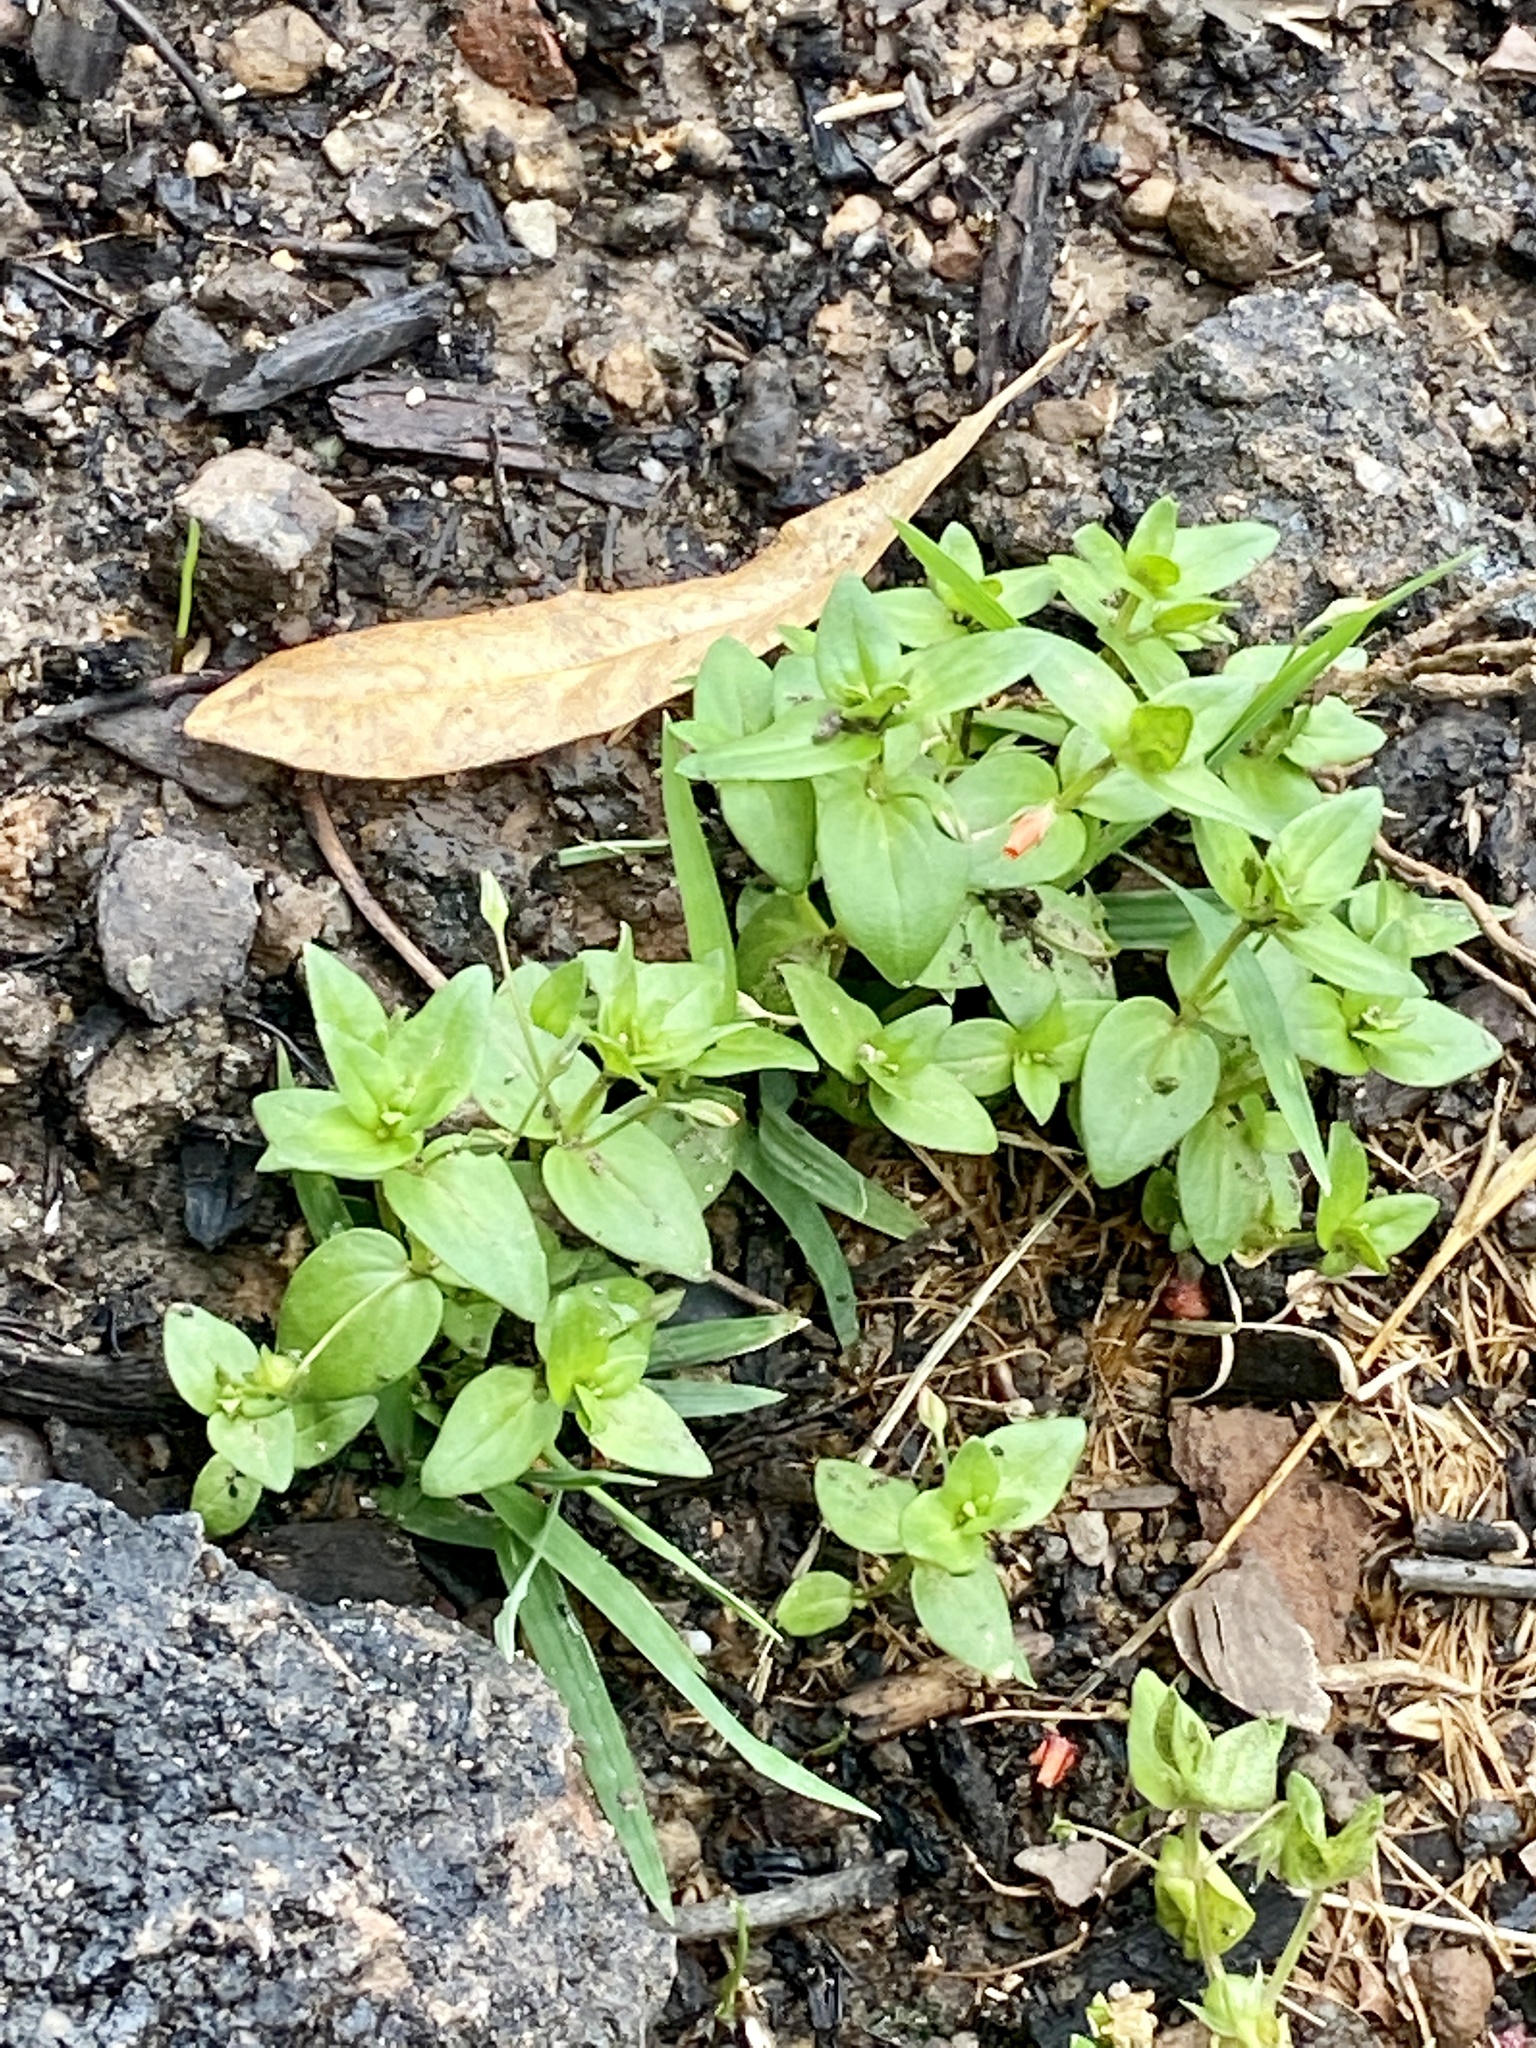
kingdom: Plantae
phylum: Tracheophyta
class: Magnoliopsida
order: Ericales
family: Primulaceae
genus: Lysimachia
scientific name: Lysimachia arvensis
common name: Scarlet pimpernel
